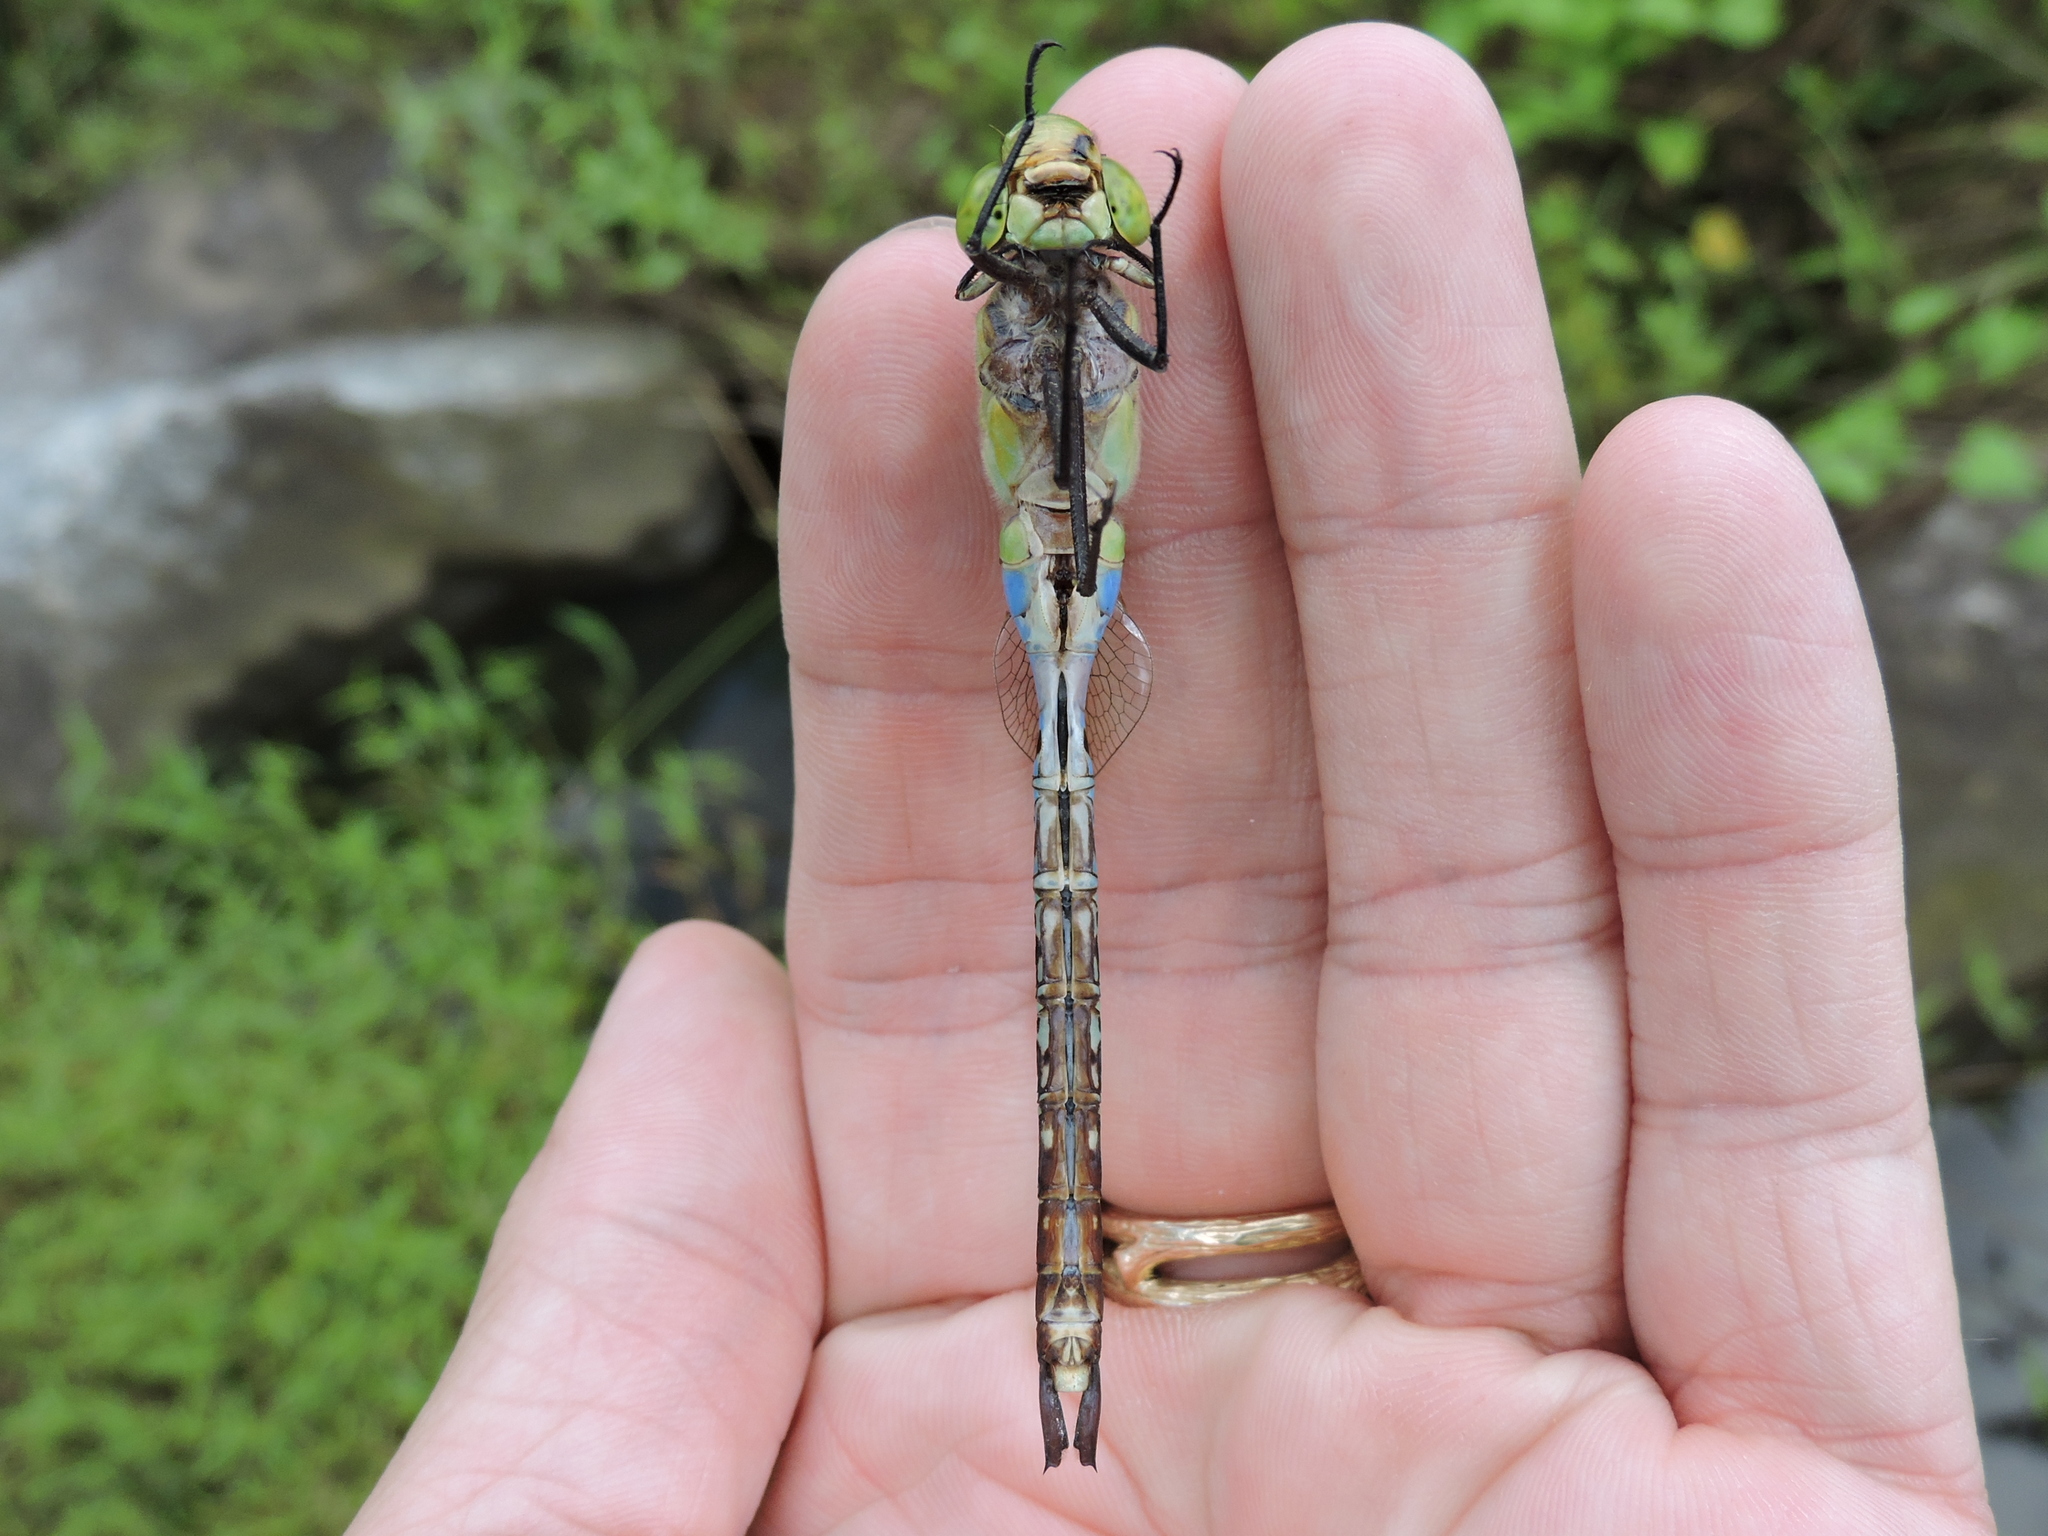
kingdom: Animalia
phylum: Arthropoda
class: Insecta
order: Odonata
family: Aeshnidae
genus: Anax
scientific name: Anax junius
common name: Common green darner
